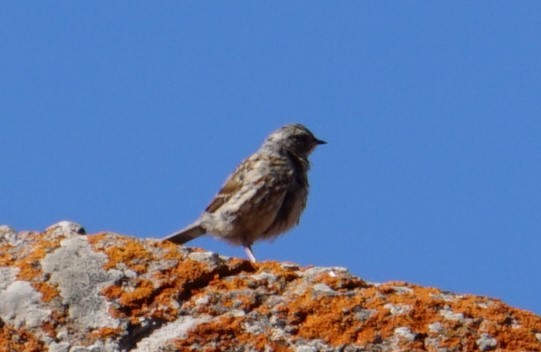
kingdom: Animalia
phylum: Chordata
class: Aves
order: Passeriformes
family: Prunellidae
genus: Prunella
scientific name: Prunella himalayana
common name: Altai accentor
